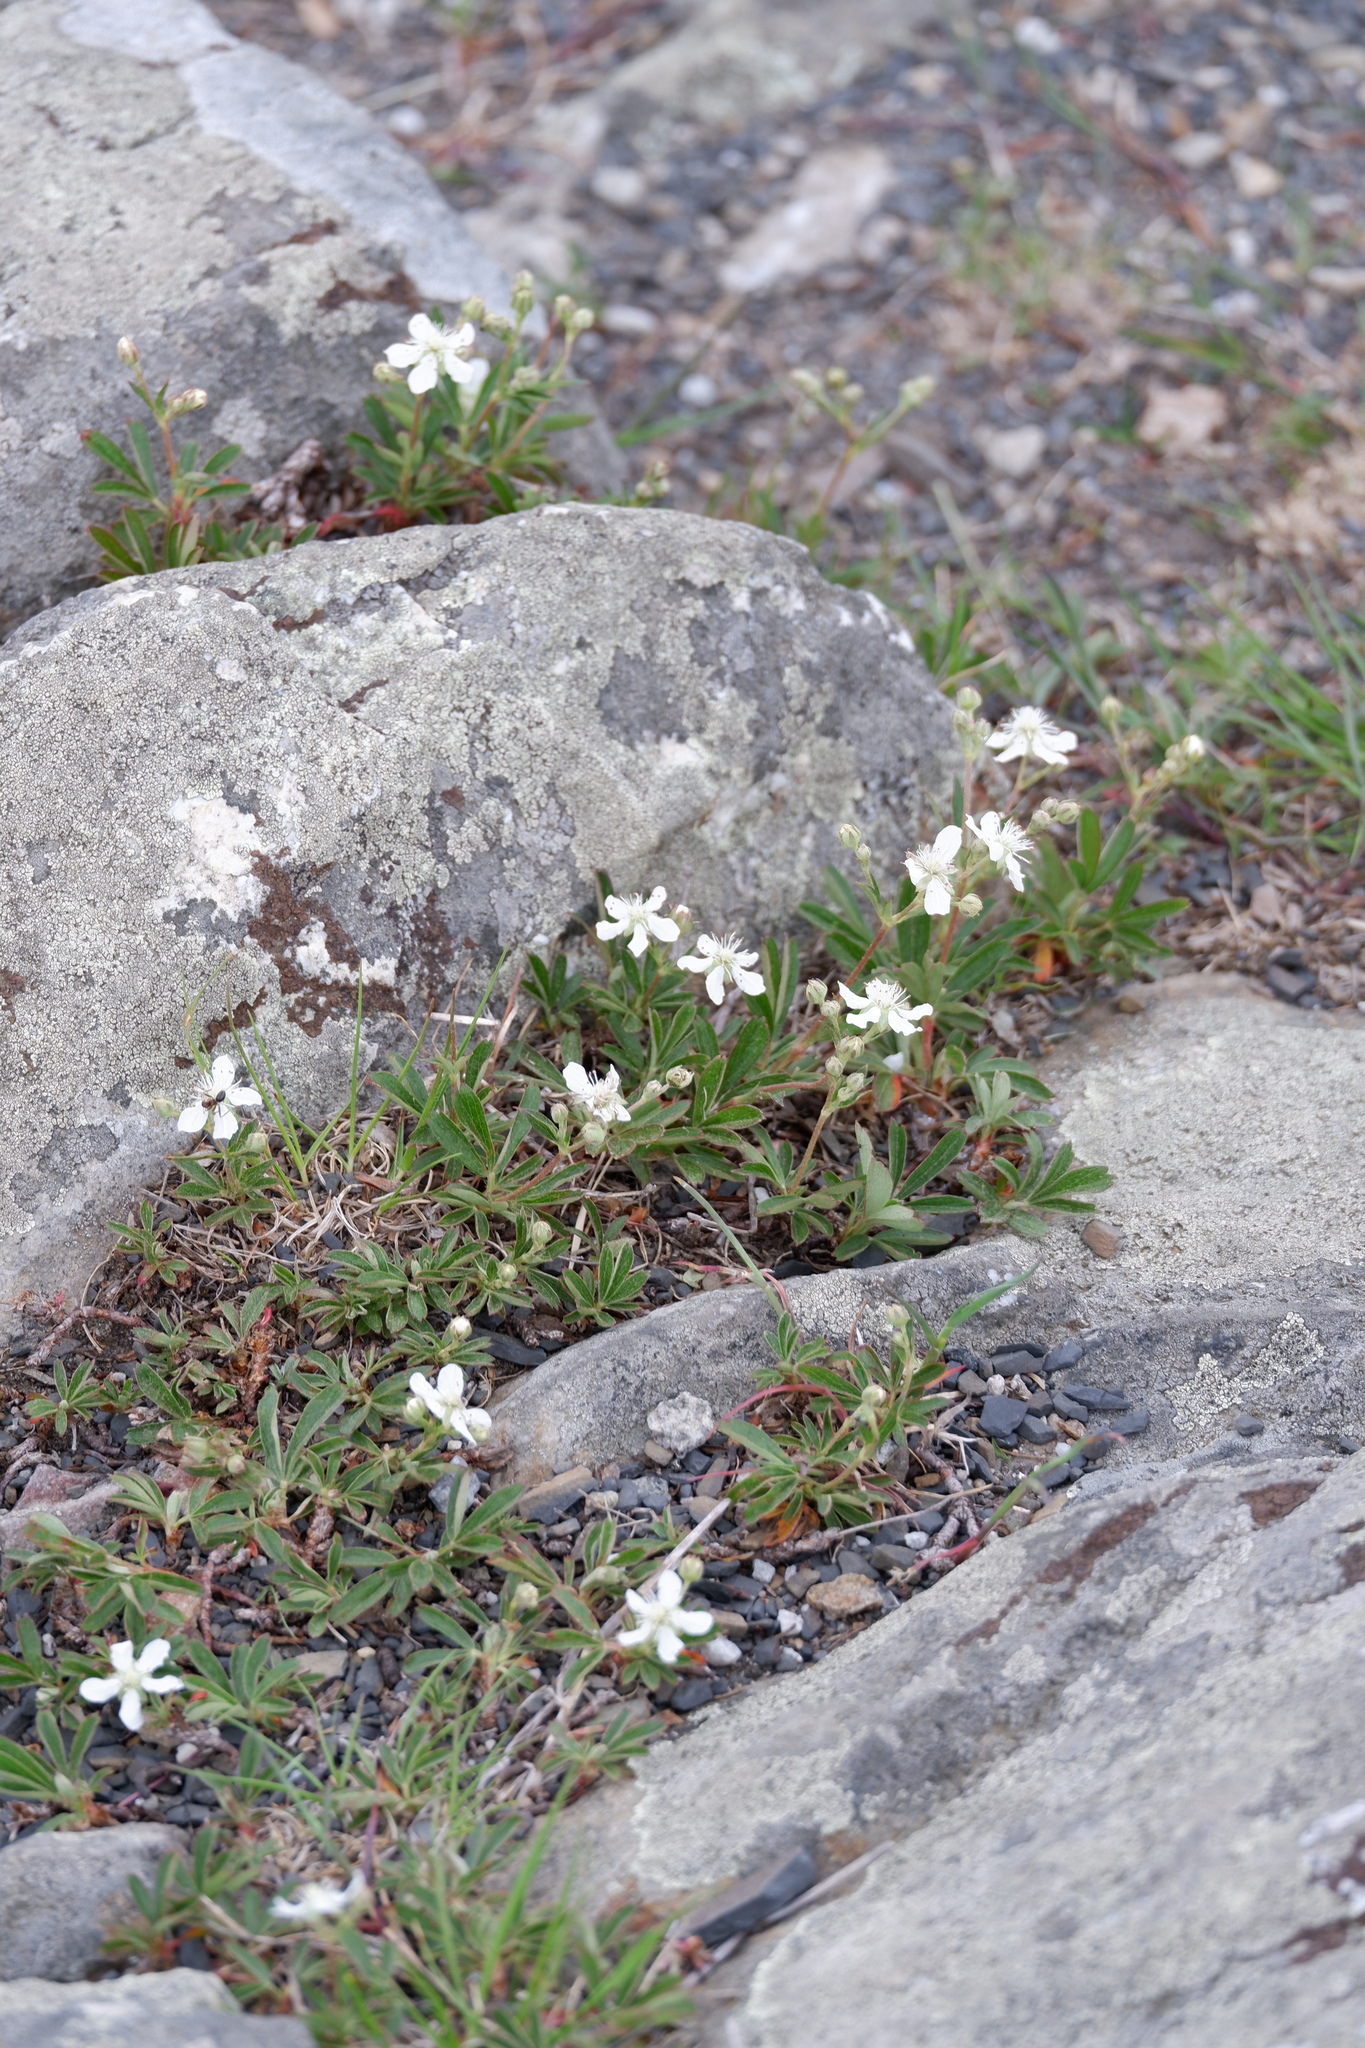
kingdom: Plantae
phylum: Tracheophyta
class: Magnoliopsida
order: Rosales
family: Rosaceae
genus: Sibbaldia
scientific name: Sibbaldia tridentata
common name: Three-toothed cinquefoil
